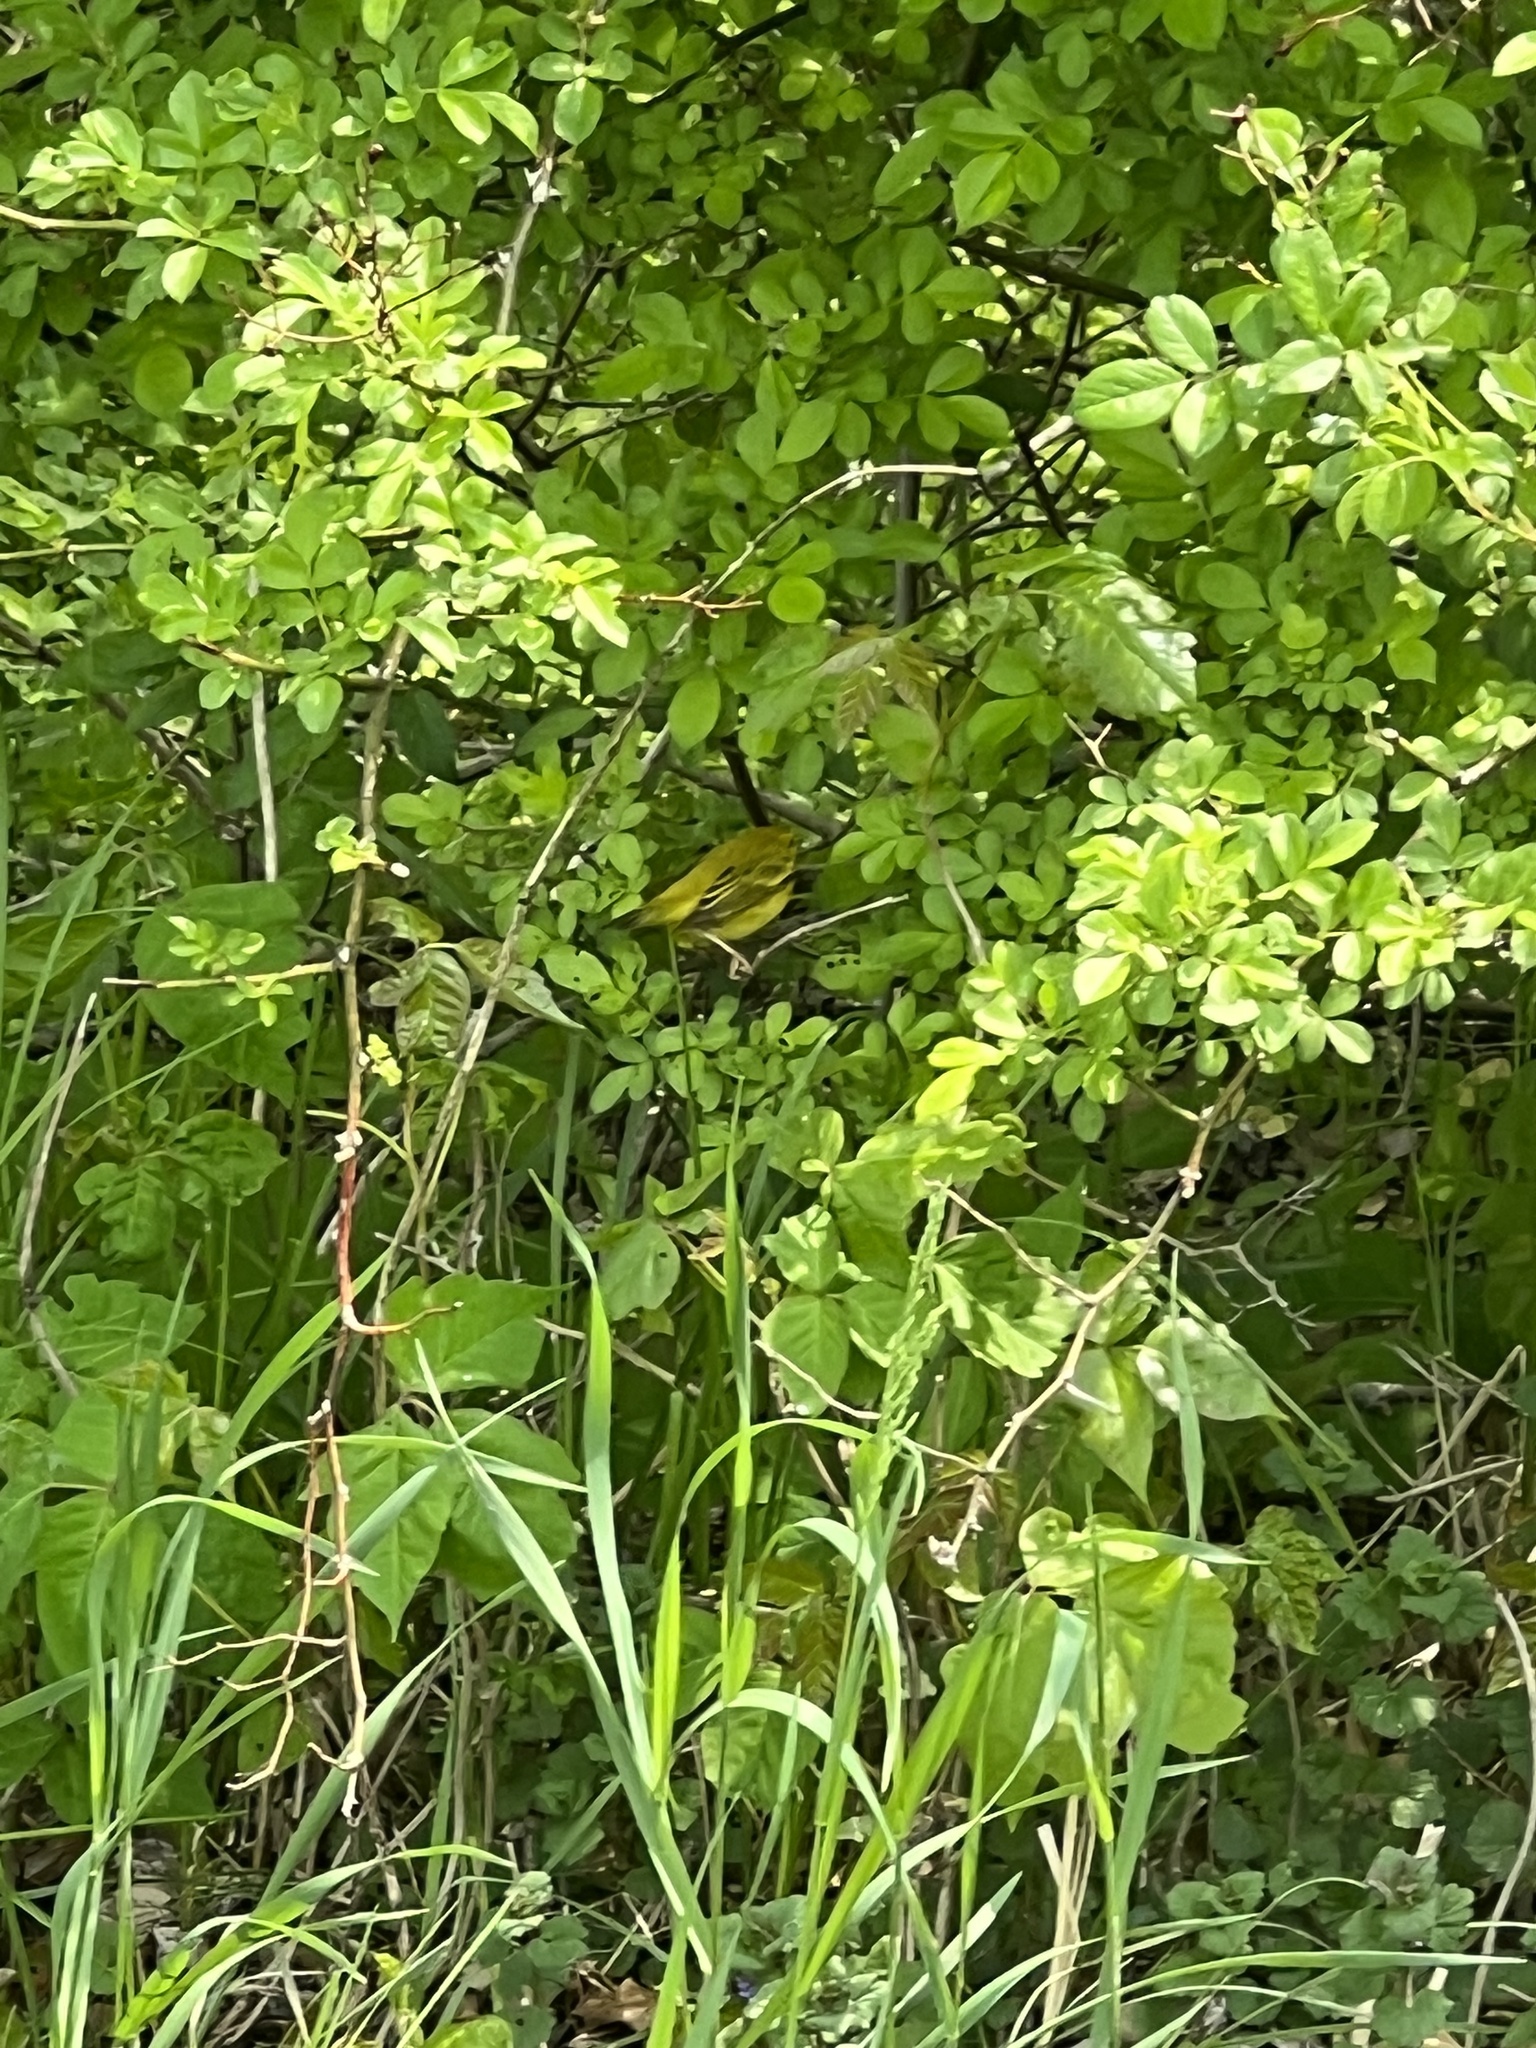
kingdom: Animalia
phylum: Chordata
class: Aves
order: Passeriformes
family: Parulidae
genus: Setophaga
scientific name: Setophaga petechia
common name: Yellow warbler
